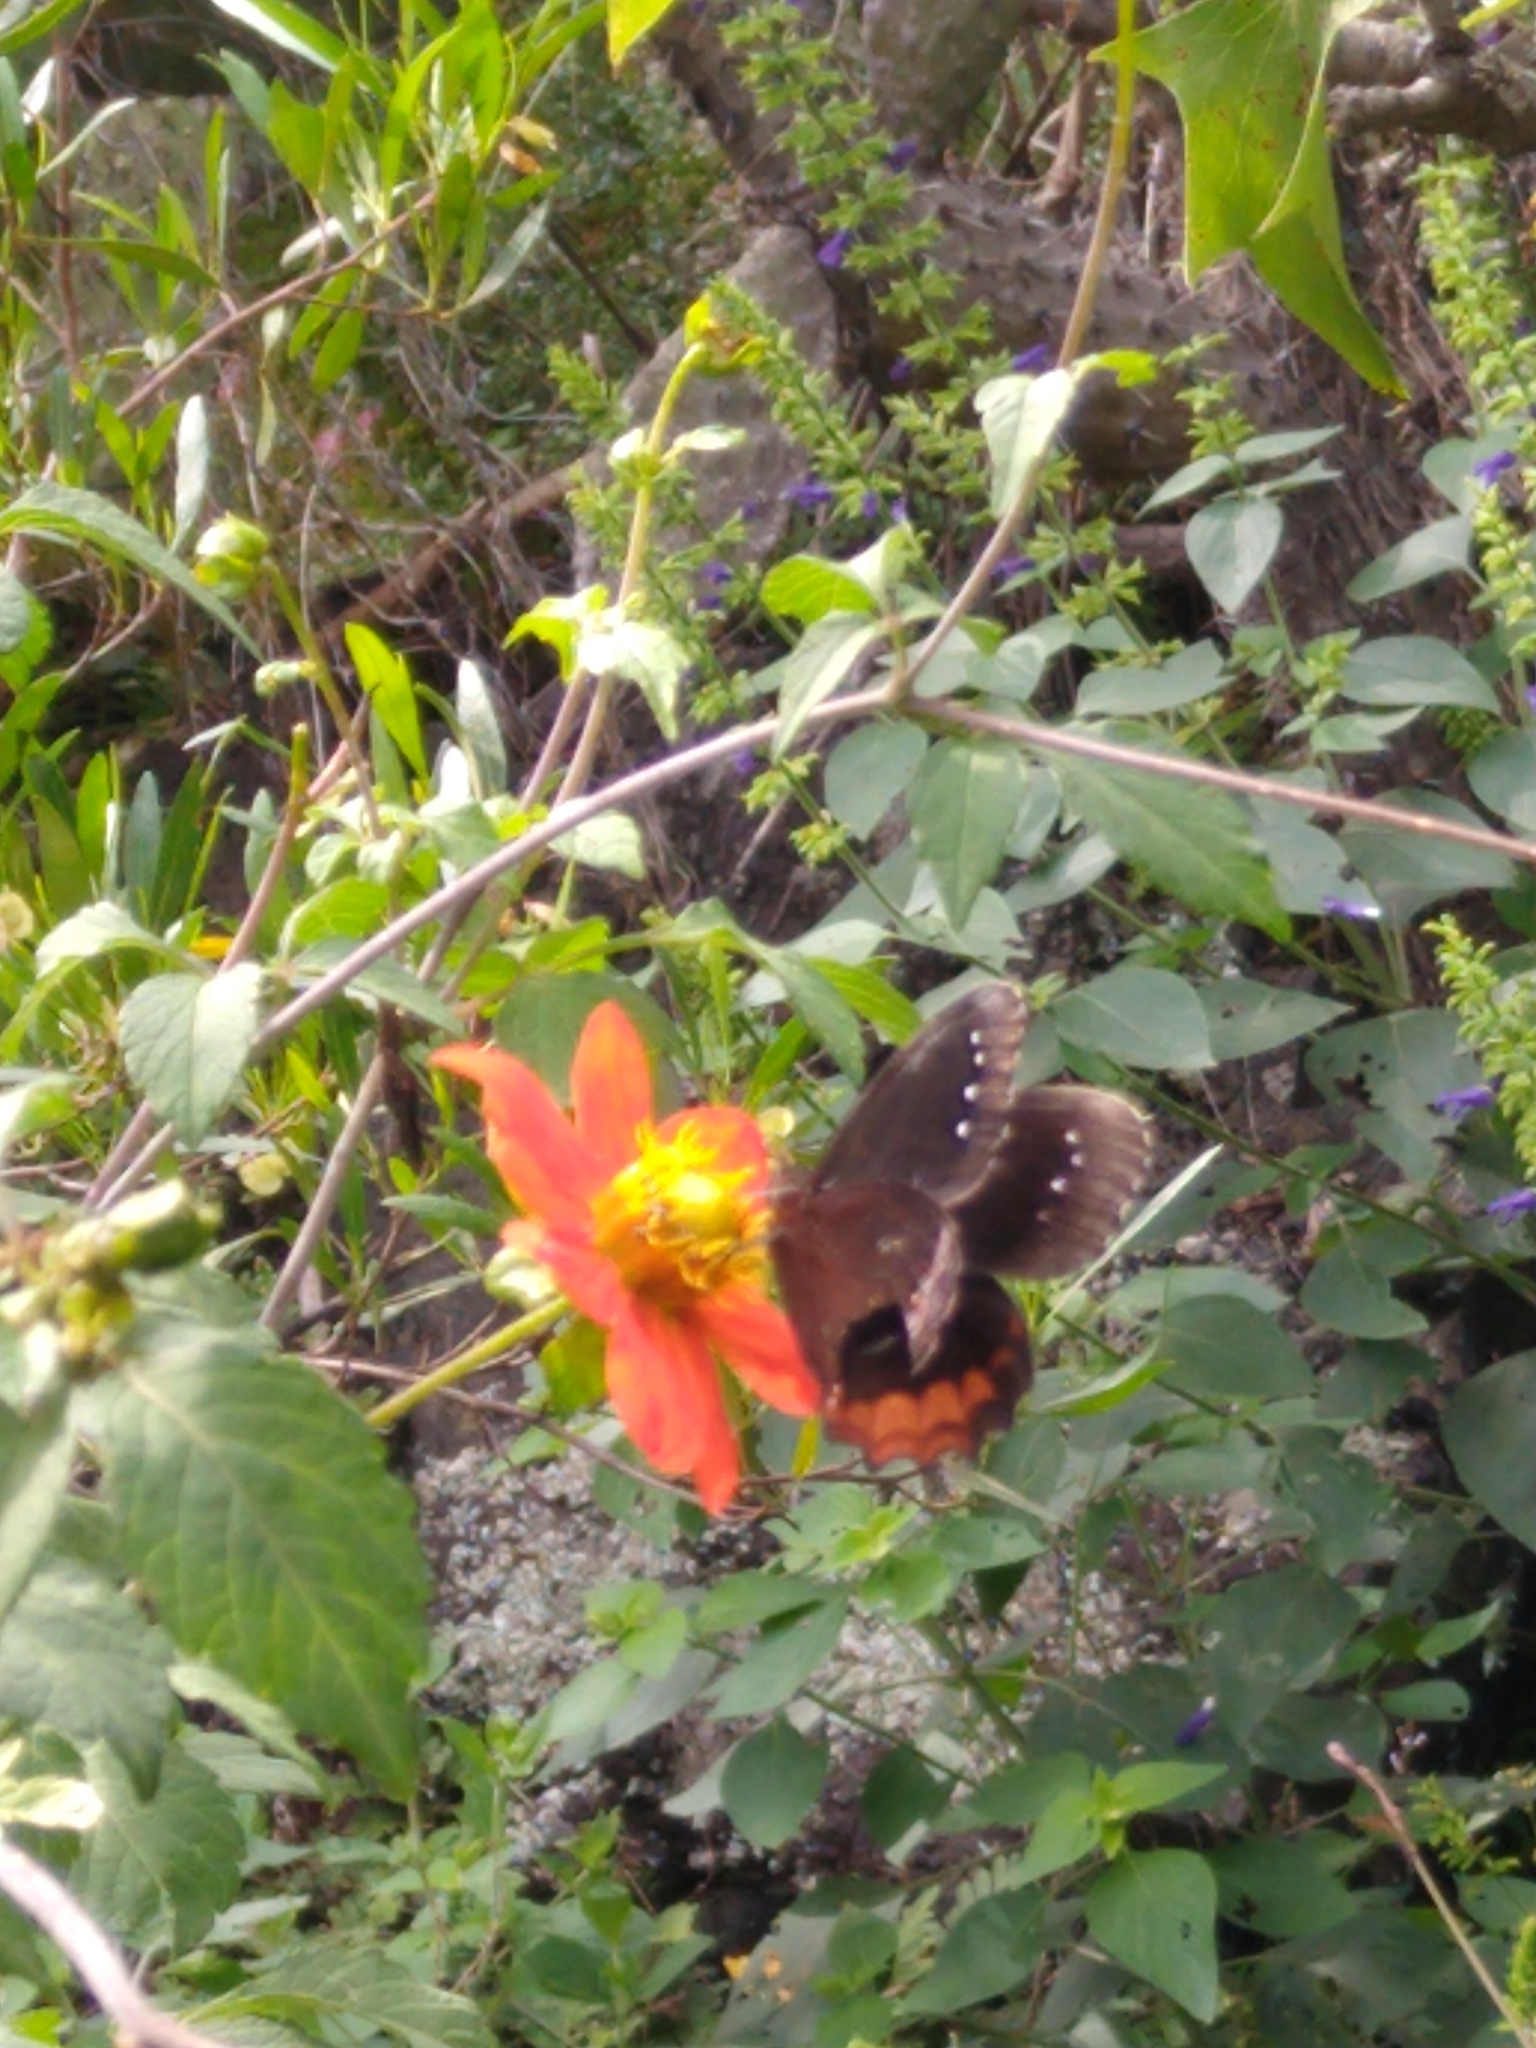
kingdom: Animalia
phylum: Arthropoda
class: Insecta
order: Lepidoptera
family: Nymphalidae
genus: Gyrocheilus
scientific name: Gyrocheilus patrobas
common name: Red-bordered satyr
